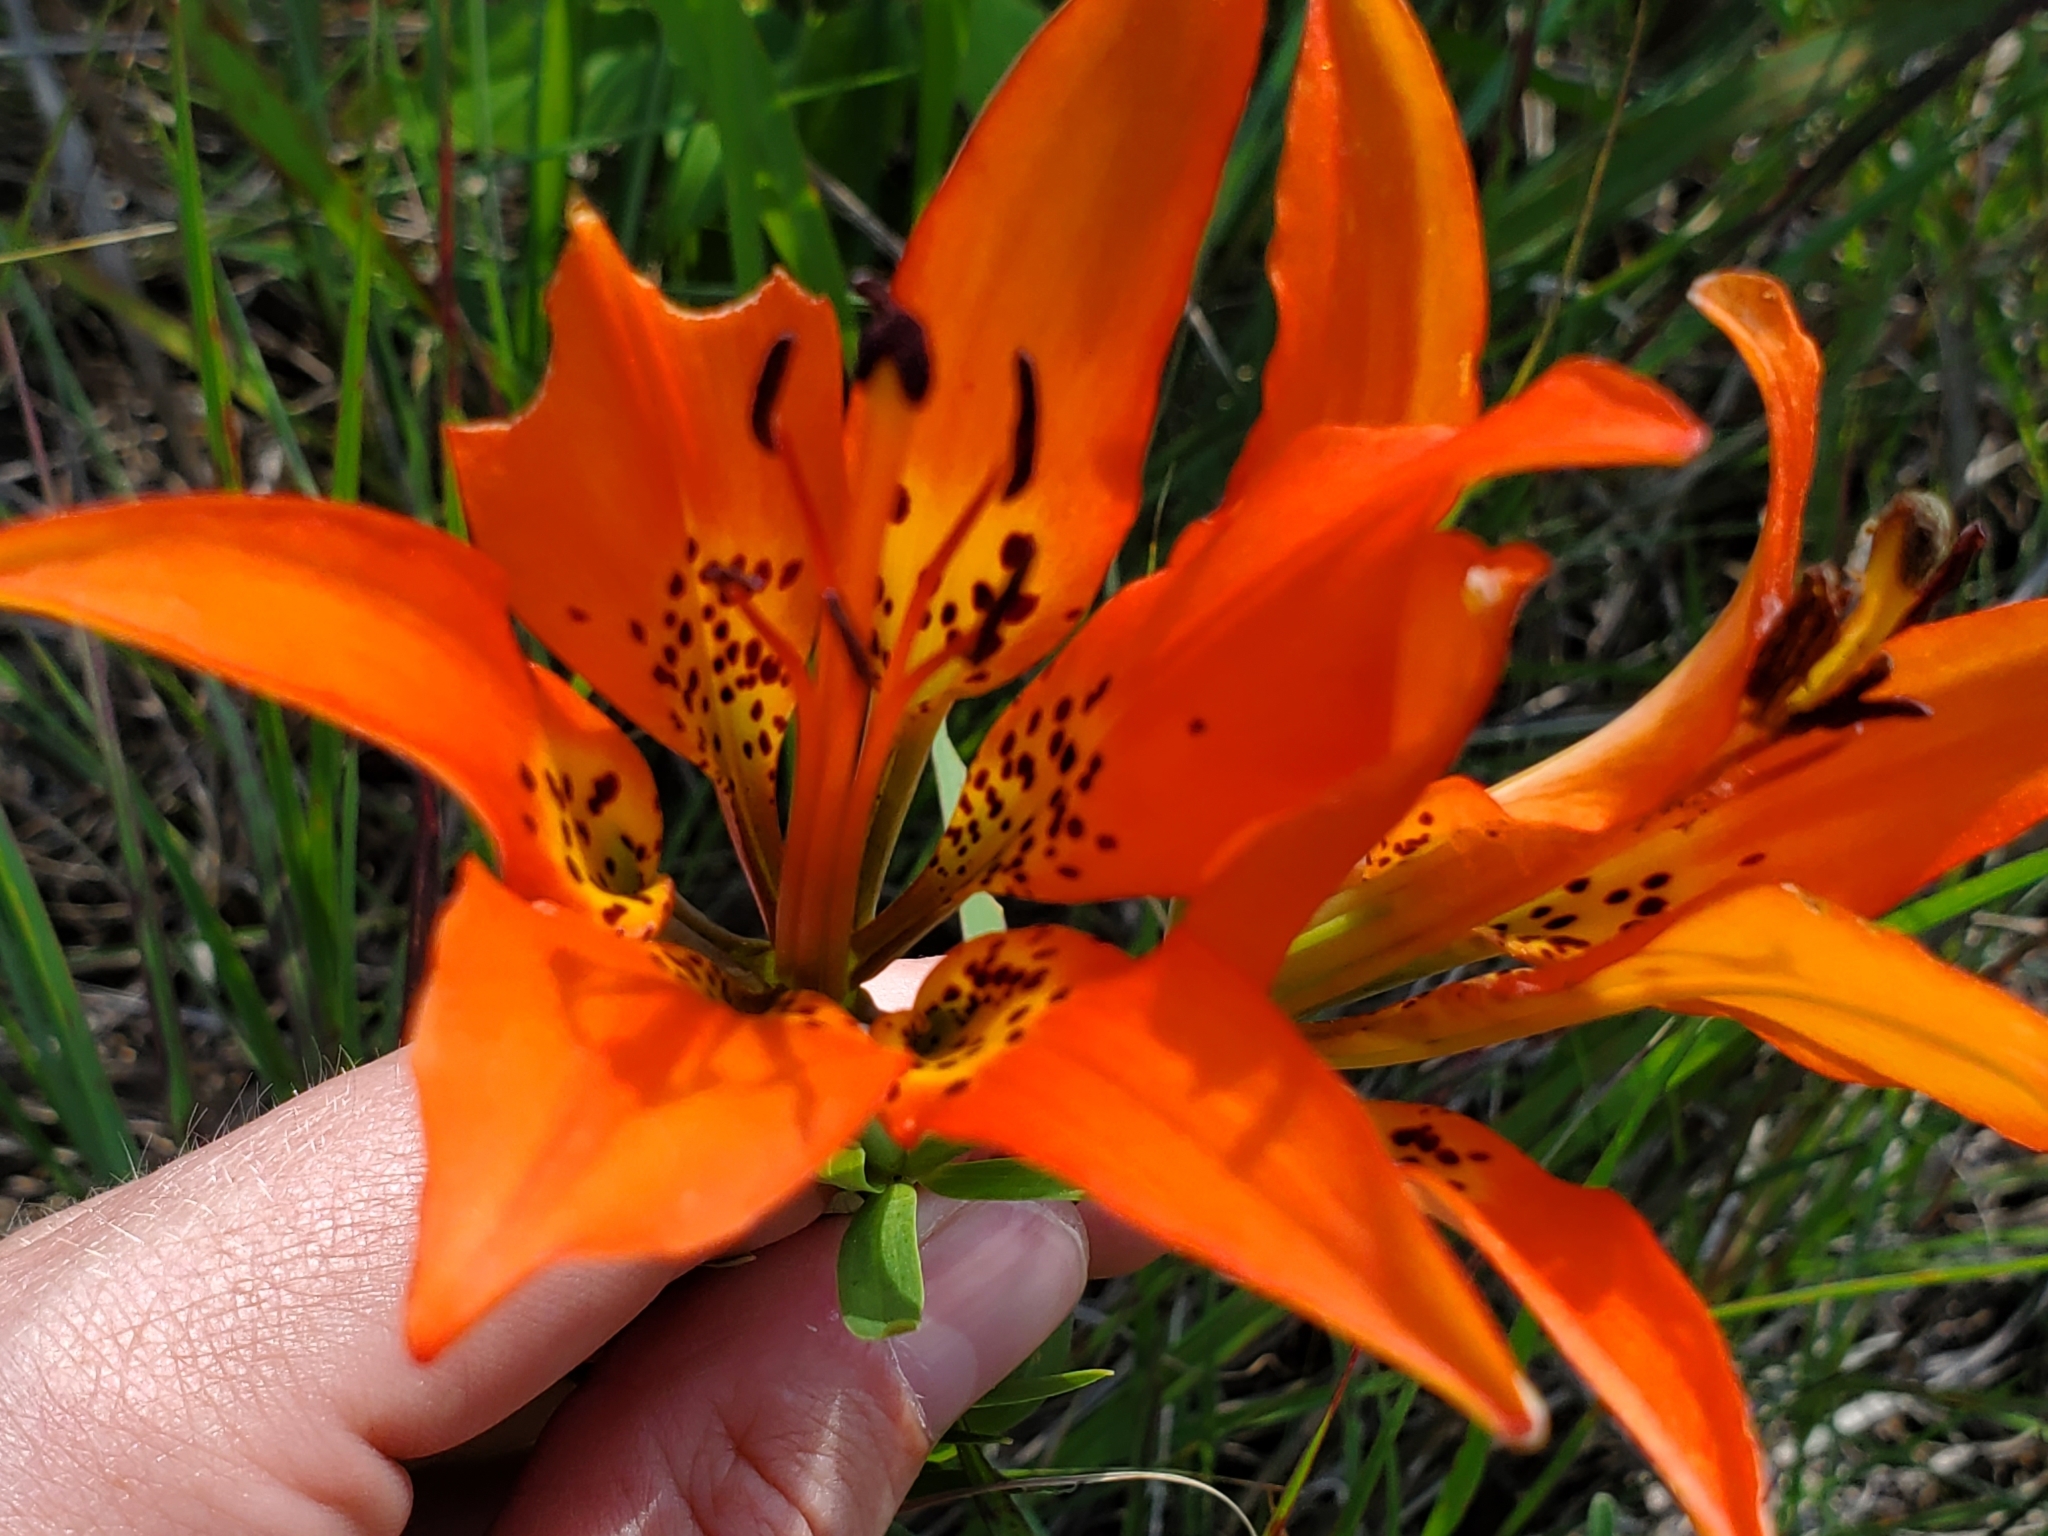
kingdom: Plantae
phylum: Tracheophyta
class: Liliopsida
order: Liliales
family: Liliaceae
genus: Lilium
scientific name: Lilium philadelphicum
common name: Red lily
